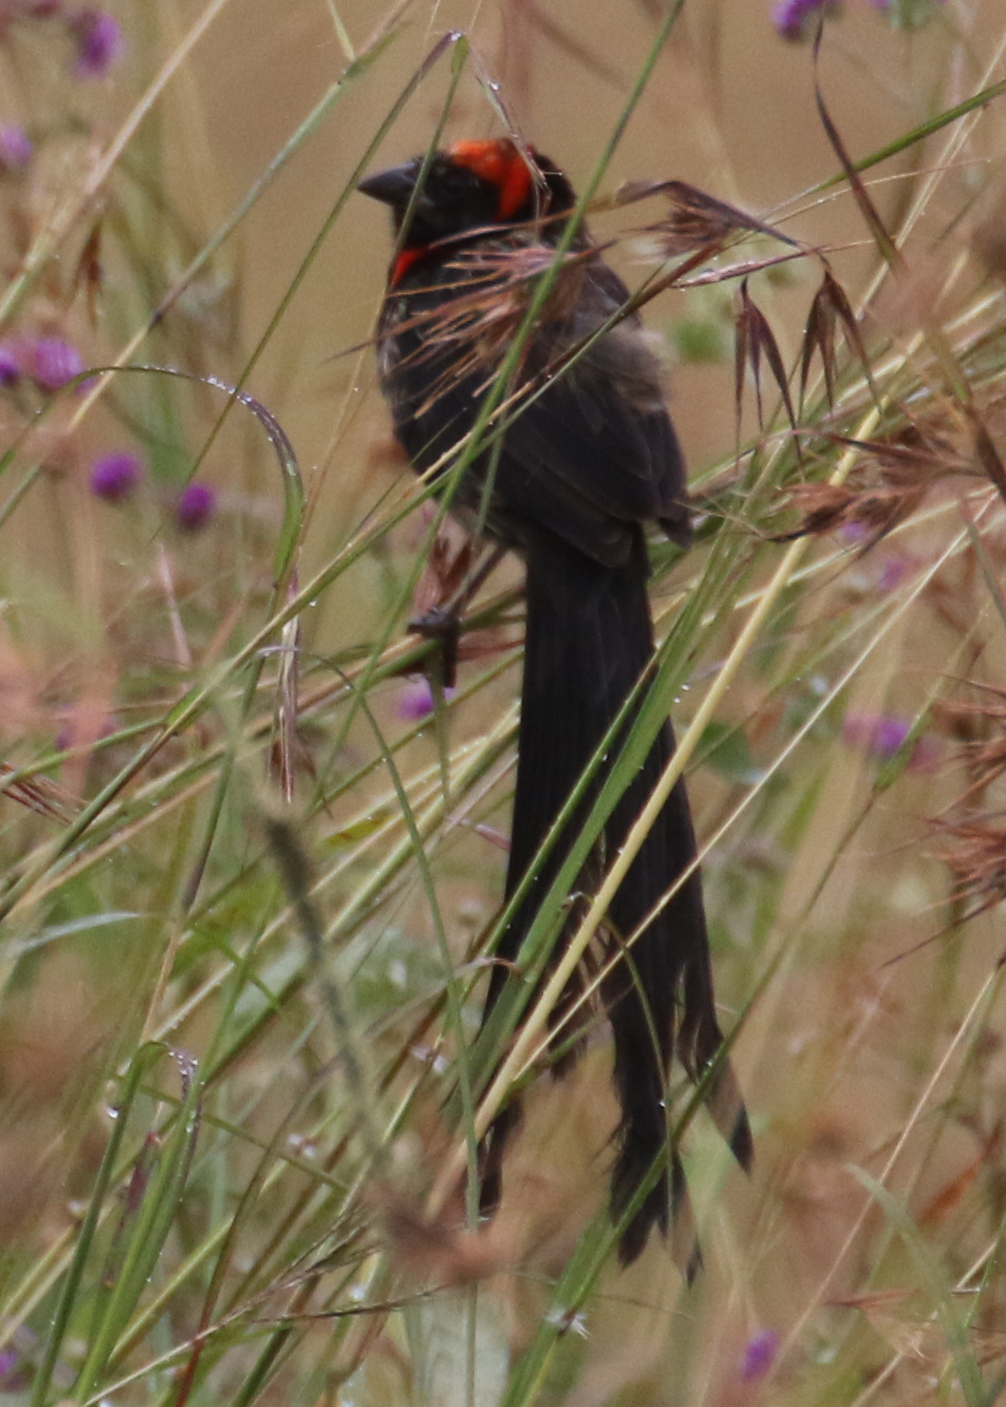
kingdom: Animalia
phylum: Chordata
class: Aves
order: Passeriformes
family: Ploceidae
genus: Euplectes
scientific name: Euplectes ardens
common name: Red-collared widowbird
